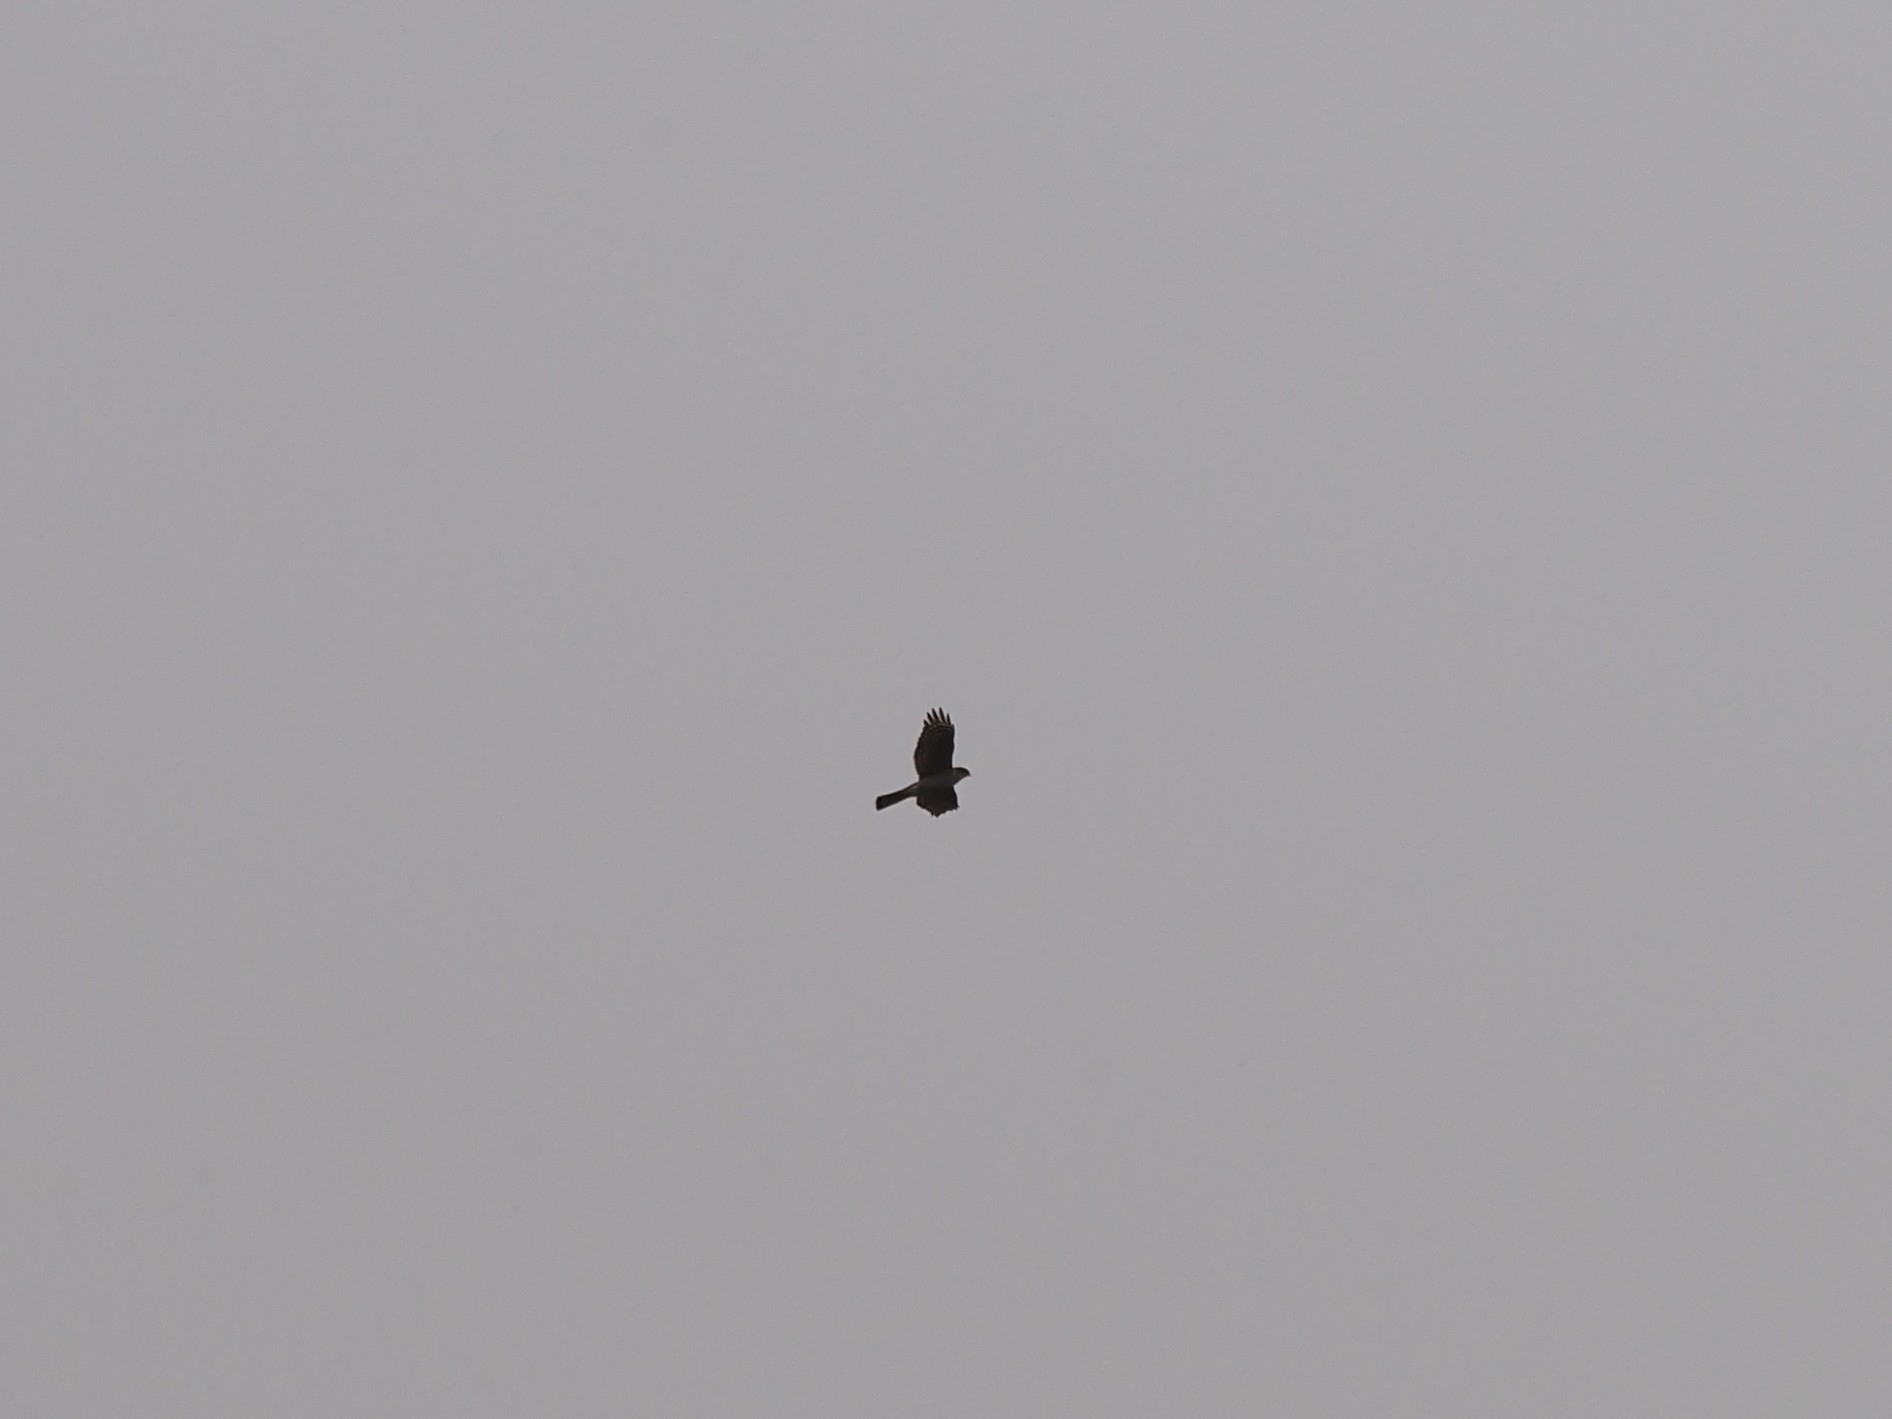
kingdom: Animalia
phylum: Chordata
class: Aves
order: Accipitriformes
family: Accipitridae
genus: Accipiter
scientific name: Accipiter nisus
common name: Eurasian sparrowhawk
